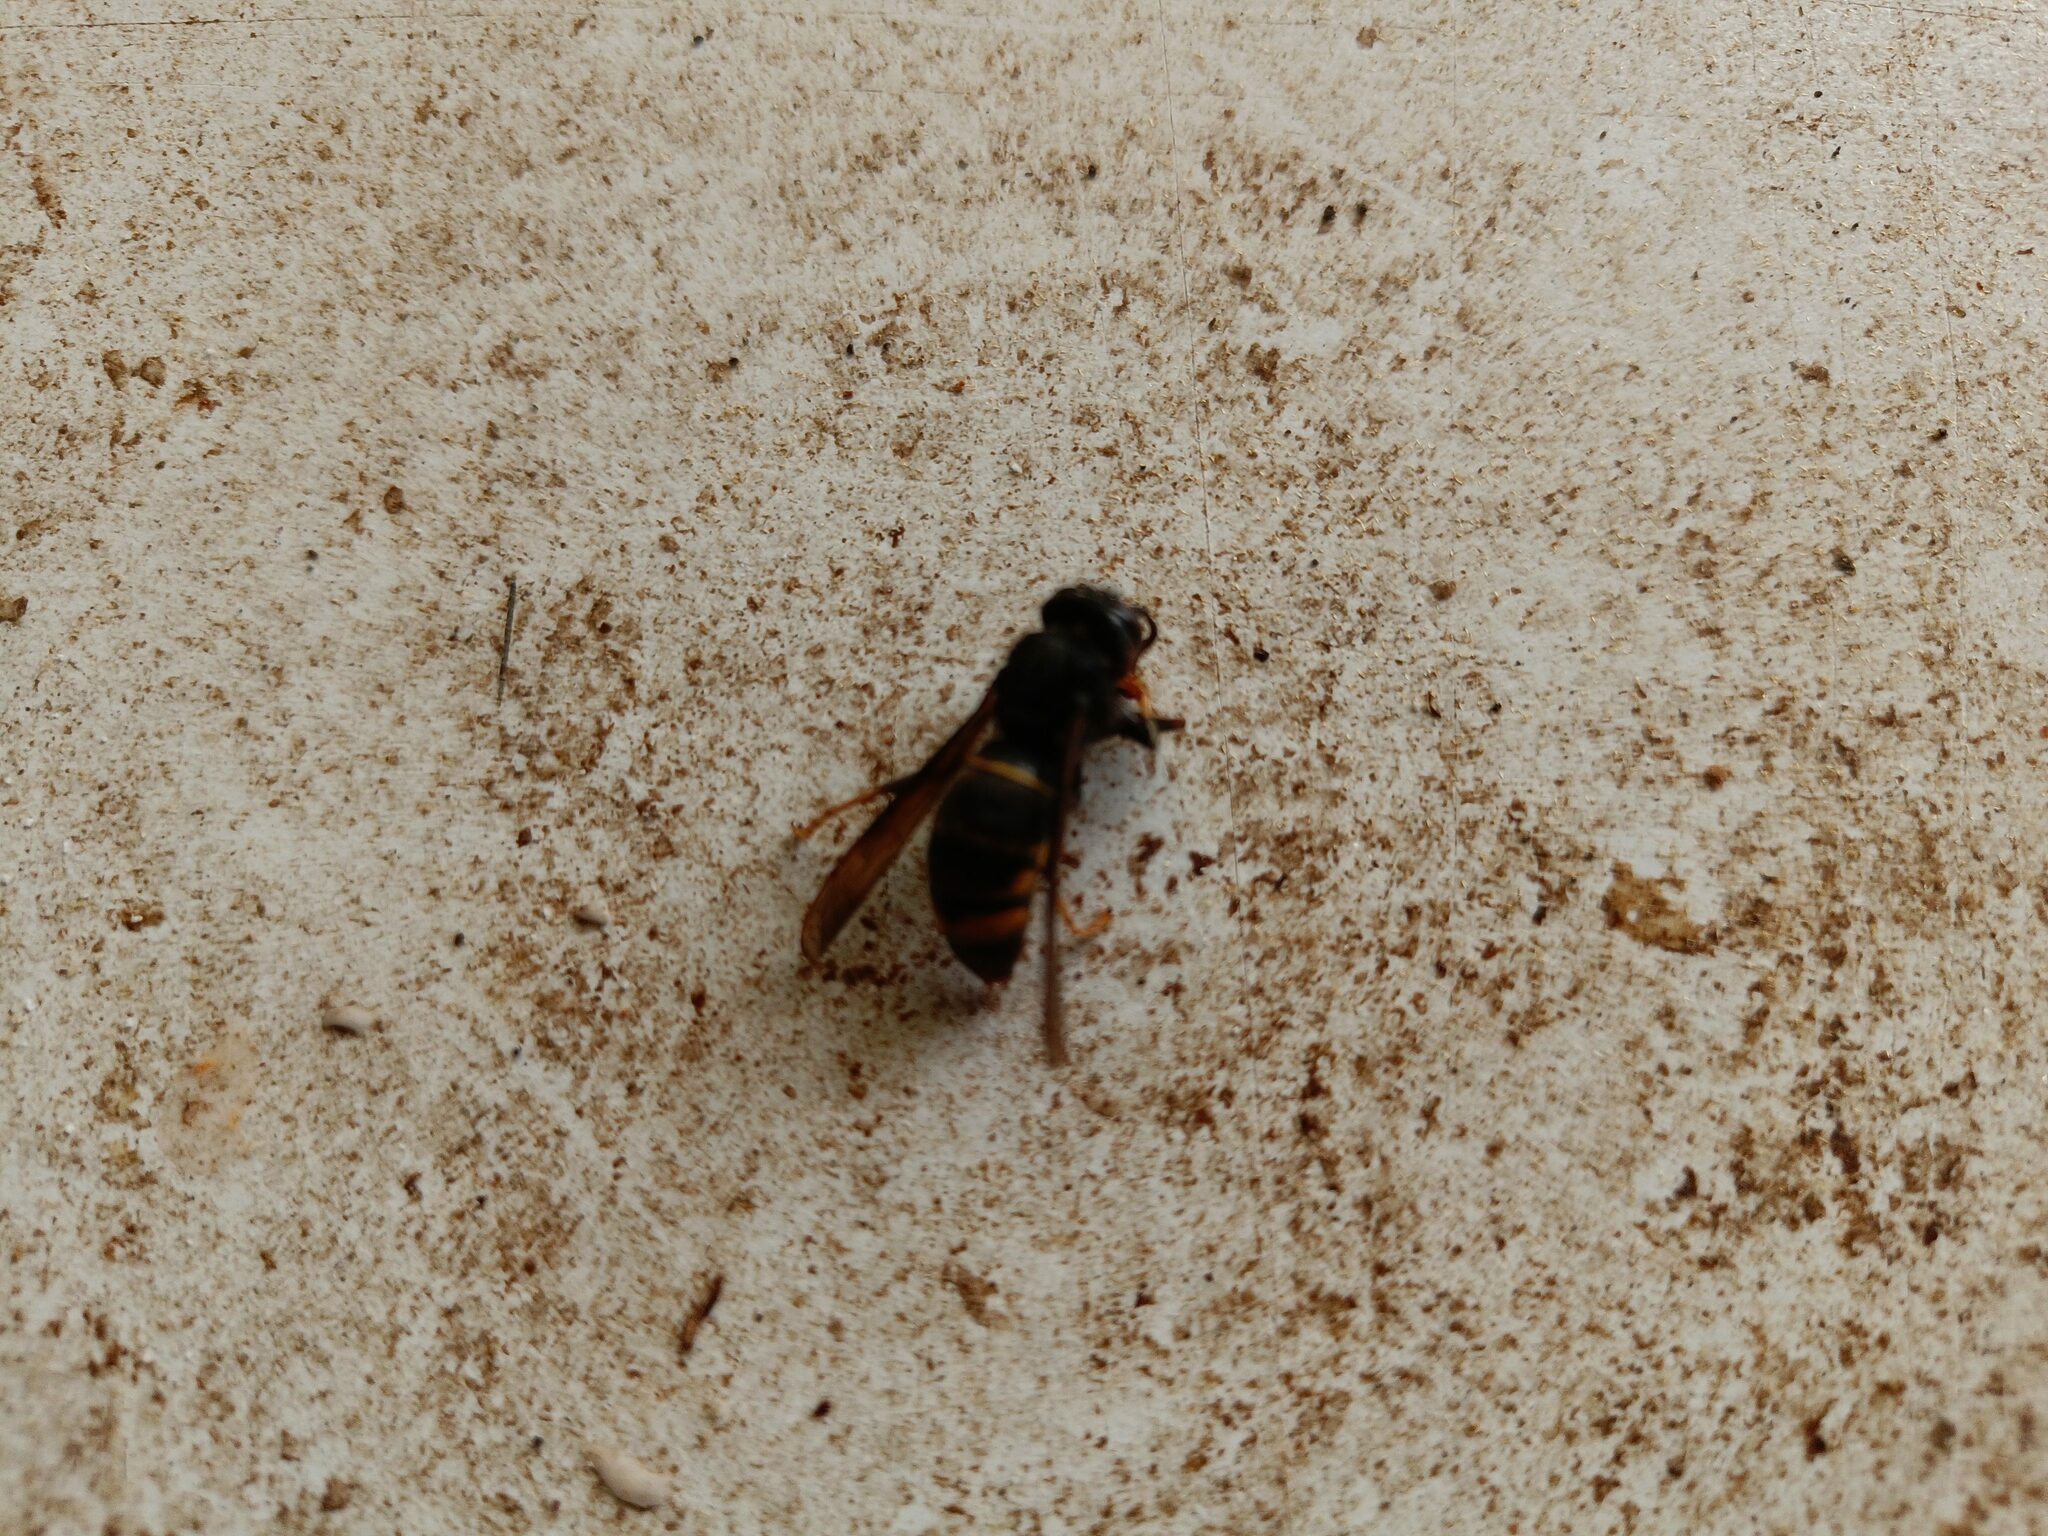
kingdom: Animalia
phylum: Arthropoda
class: Insecta
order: Hymenoptera
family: Vespidae
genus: Vespa
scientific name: Vespa velutina
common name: Asian hornet
